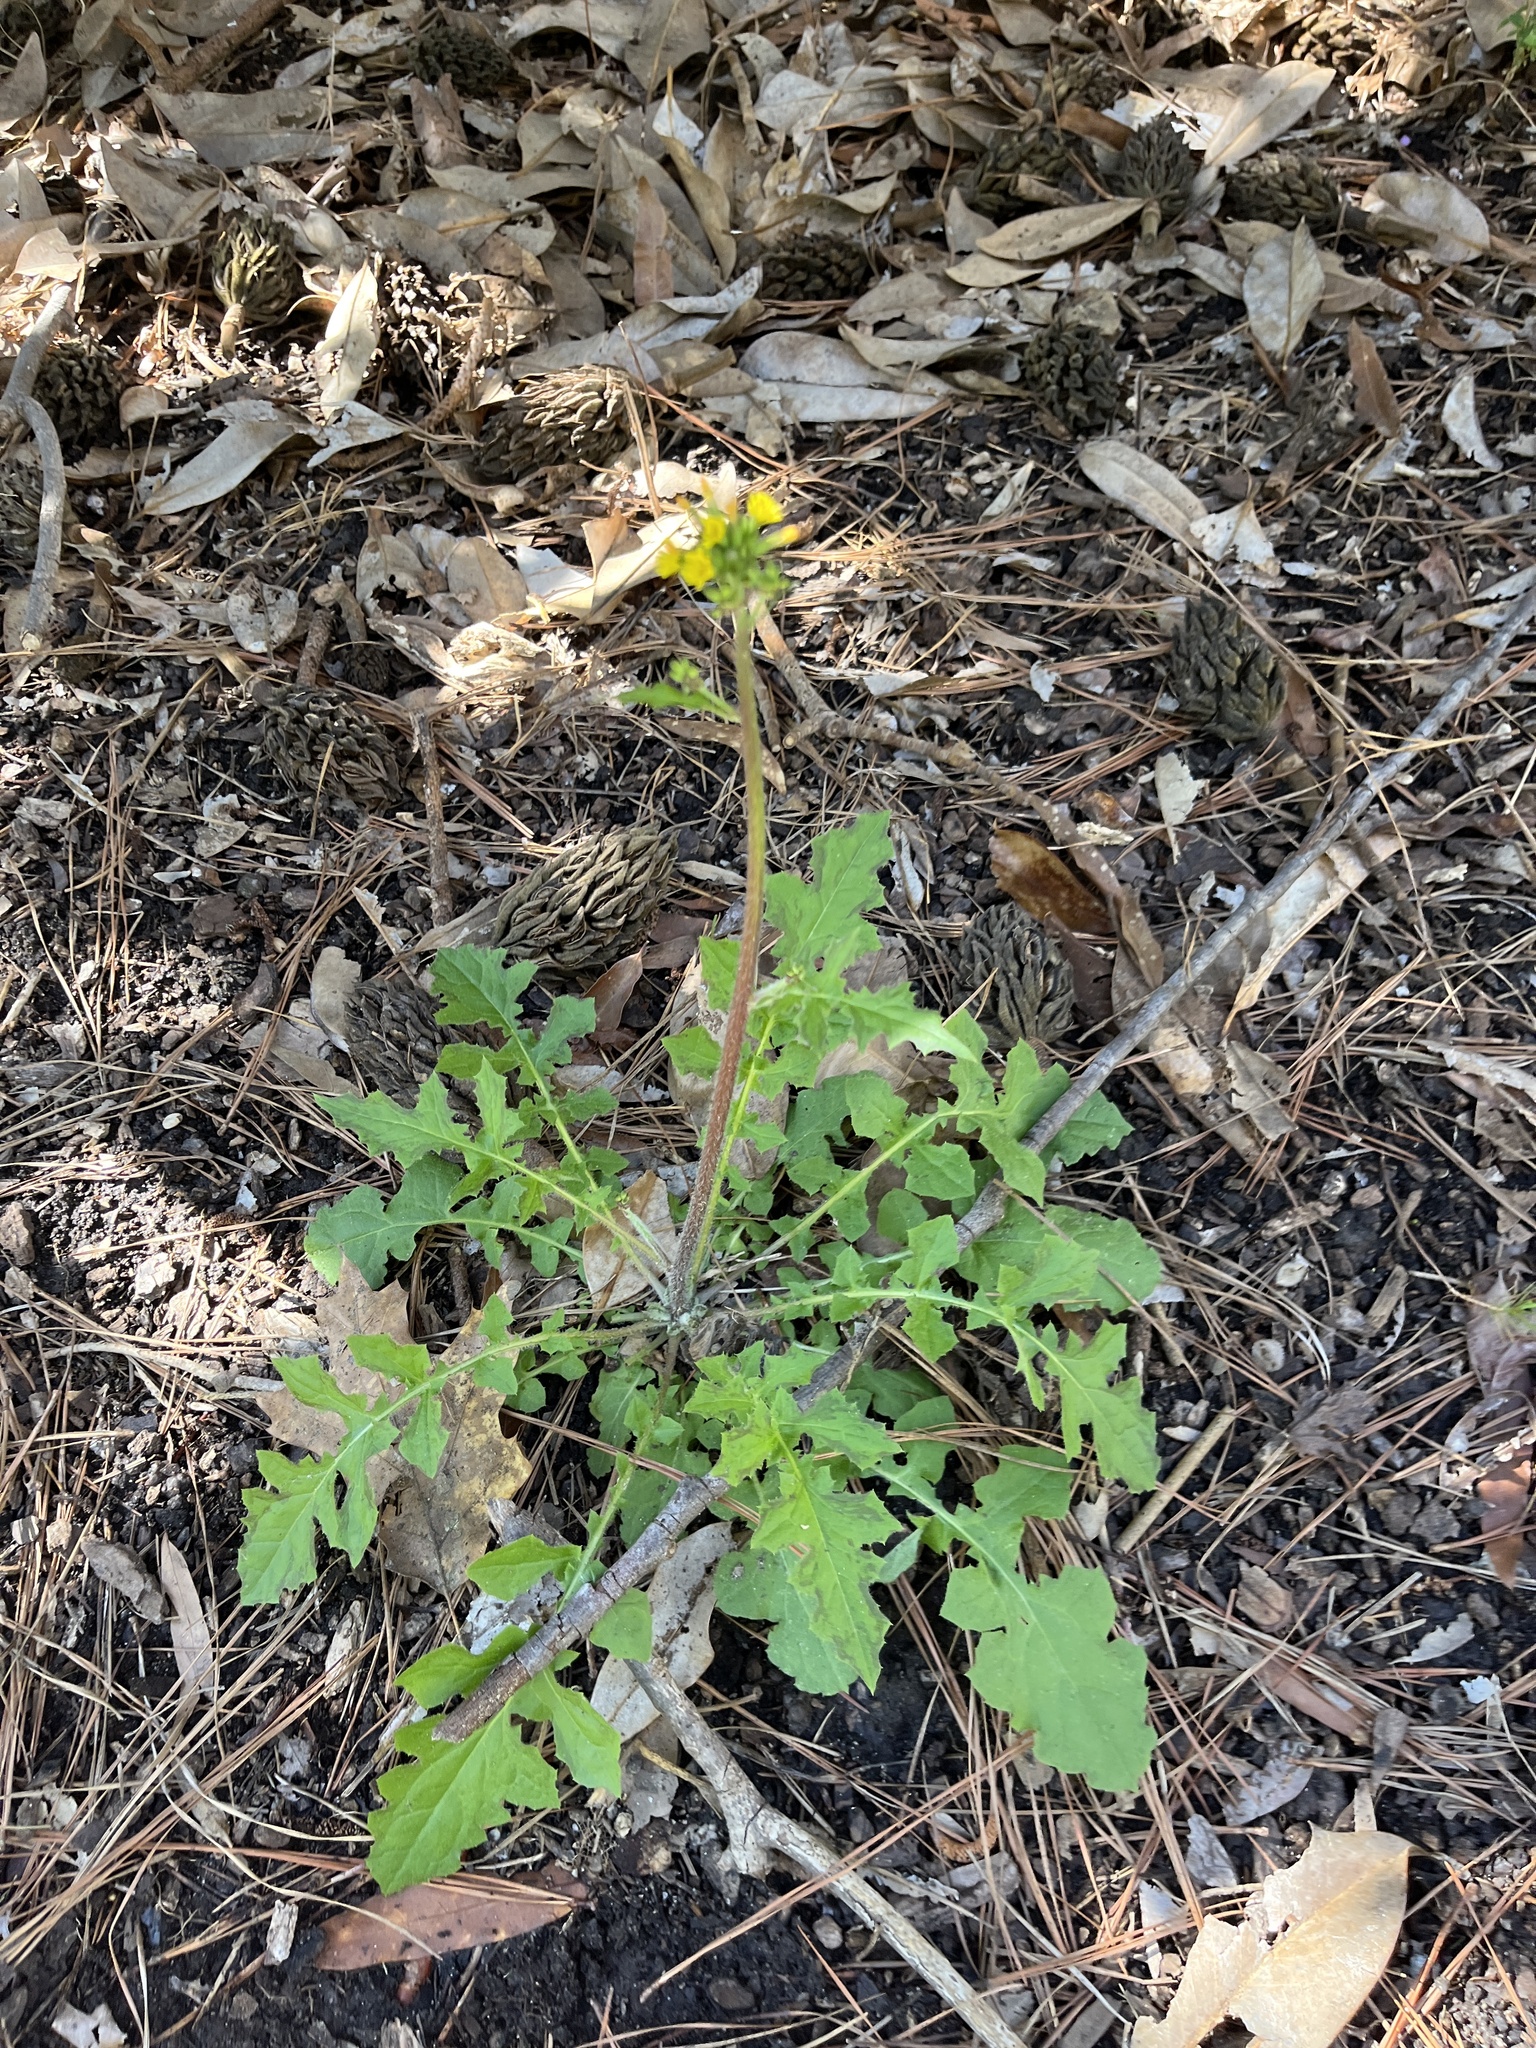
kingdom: Plantae
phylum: Tracheophyta
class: Magnoliopsida
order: Asterales
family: Asteraceae
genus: Youngia
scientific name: Youngia japonica
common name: Oriental false hawksbeard
